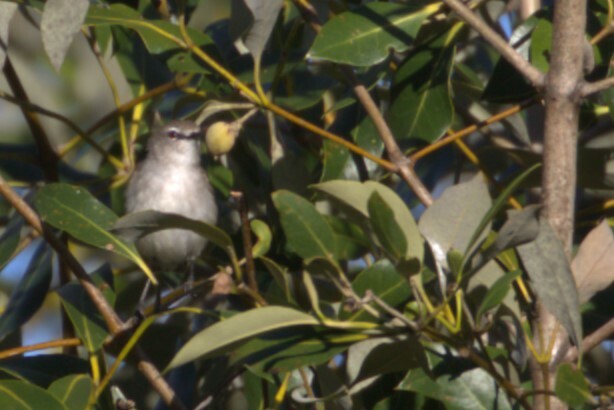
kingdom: Animalia
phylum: Chordata
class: Aves
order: Passeriformes
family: Acanthizidae
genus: Gerygone
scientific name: Gerygone levigaster
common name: Mangrove gerygone
